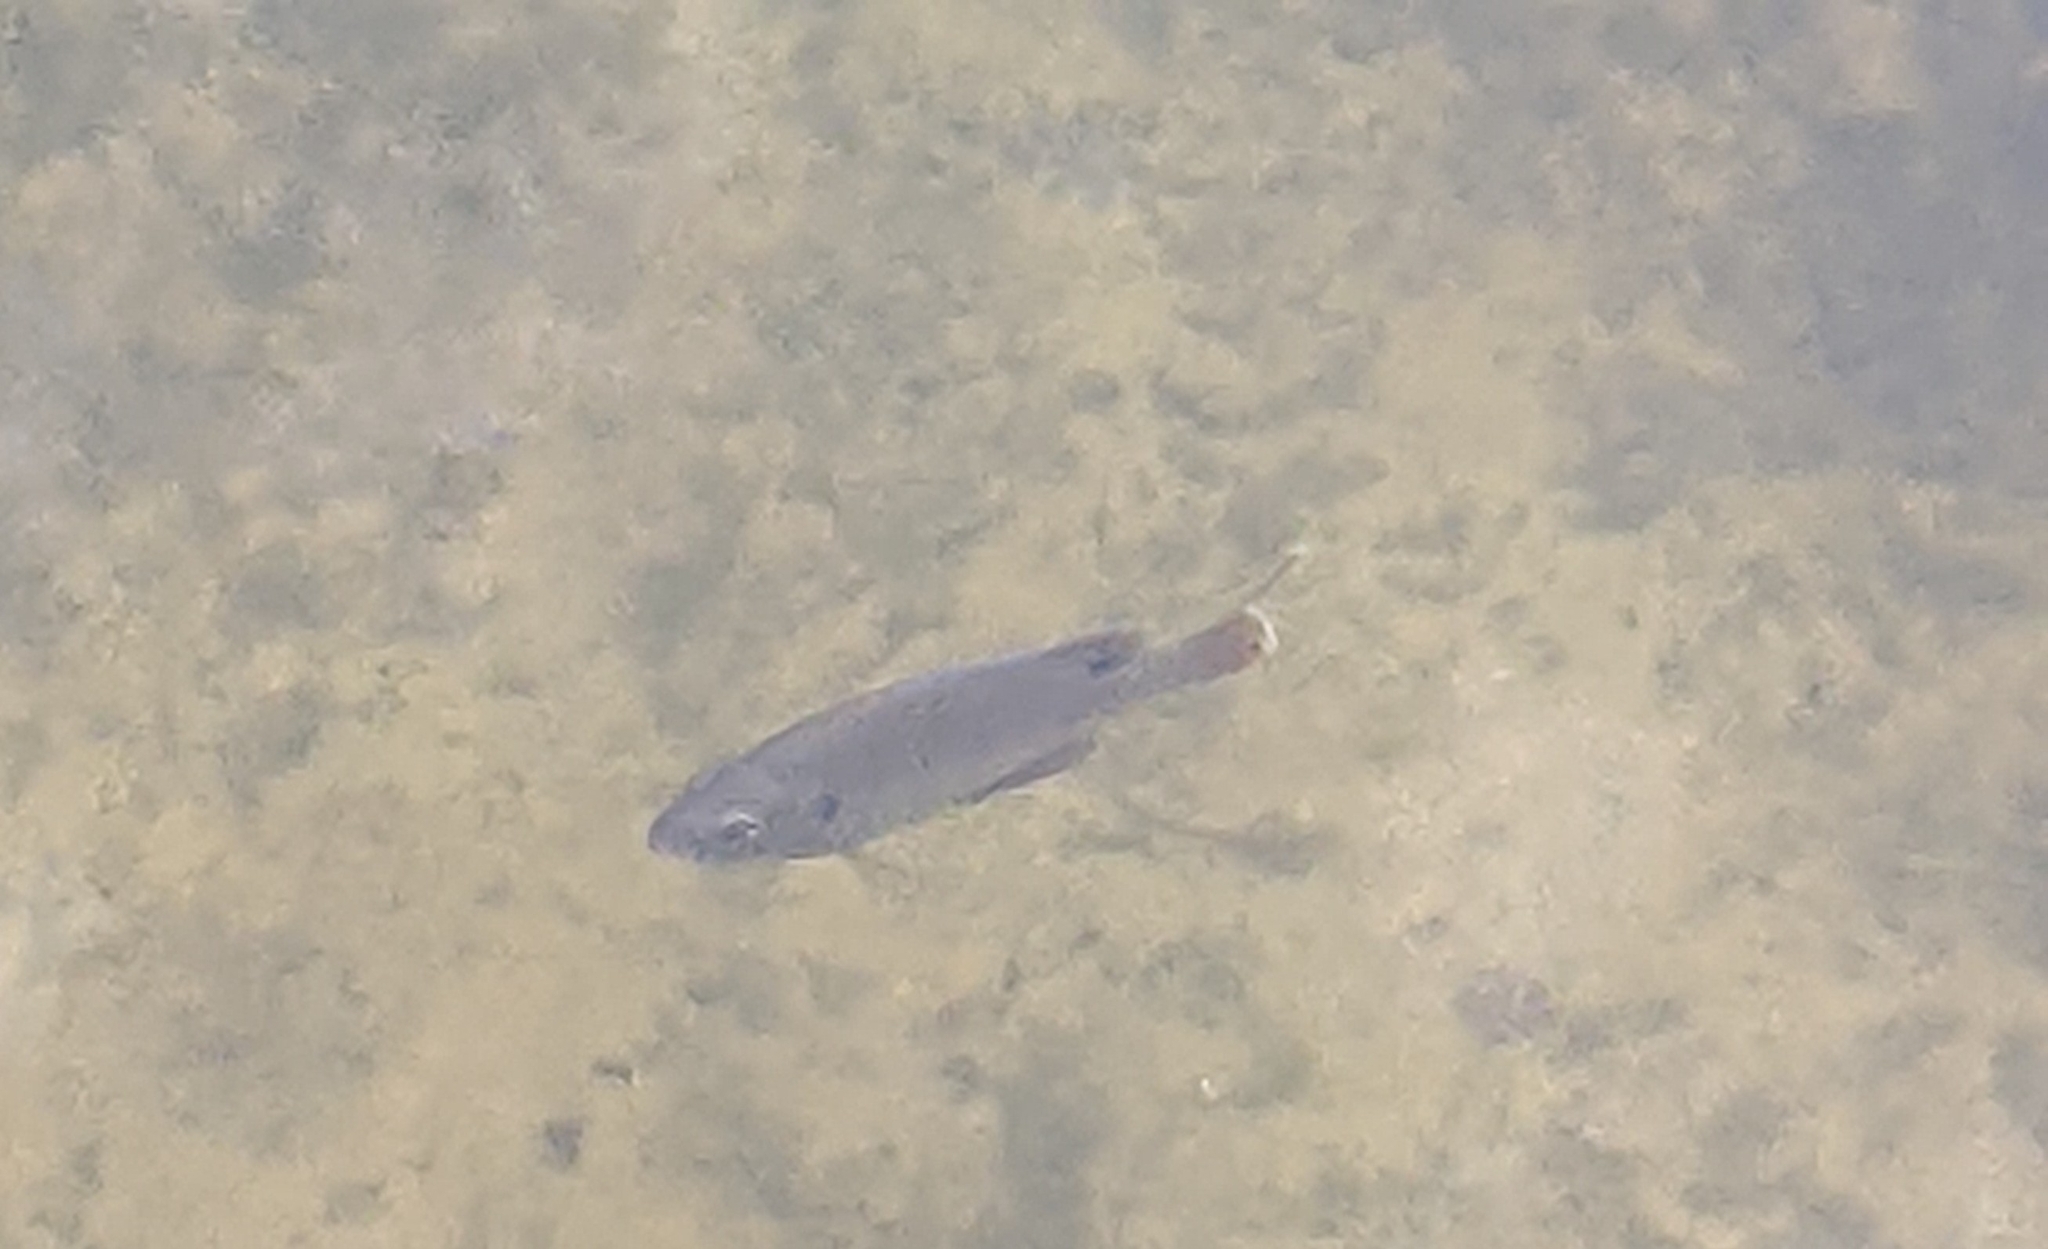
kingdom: Animalia
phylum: Chordata
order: Perciformes
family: Centrarchidae
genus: Lepomis
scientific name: Lepomis macrochirus
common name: Bluegill
